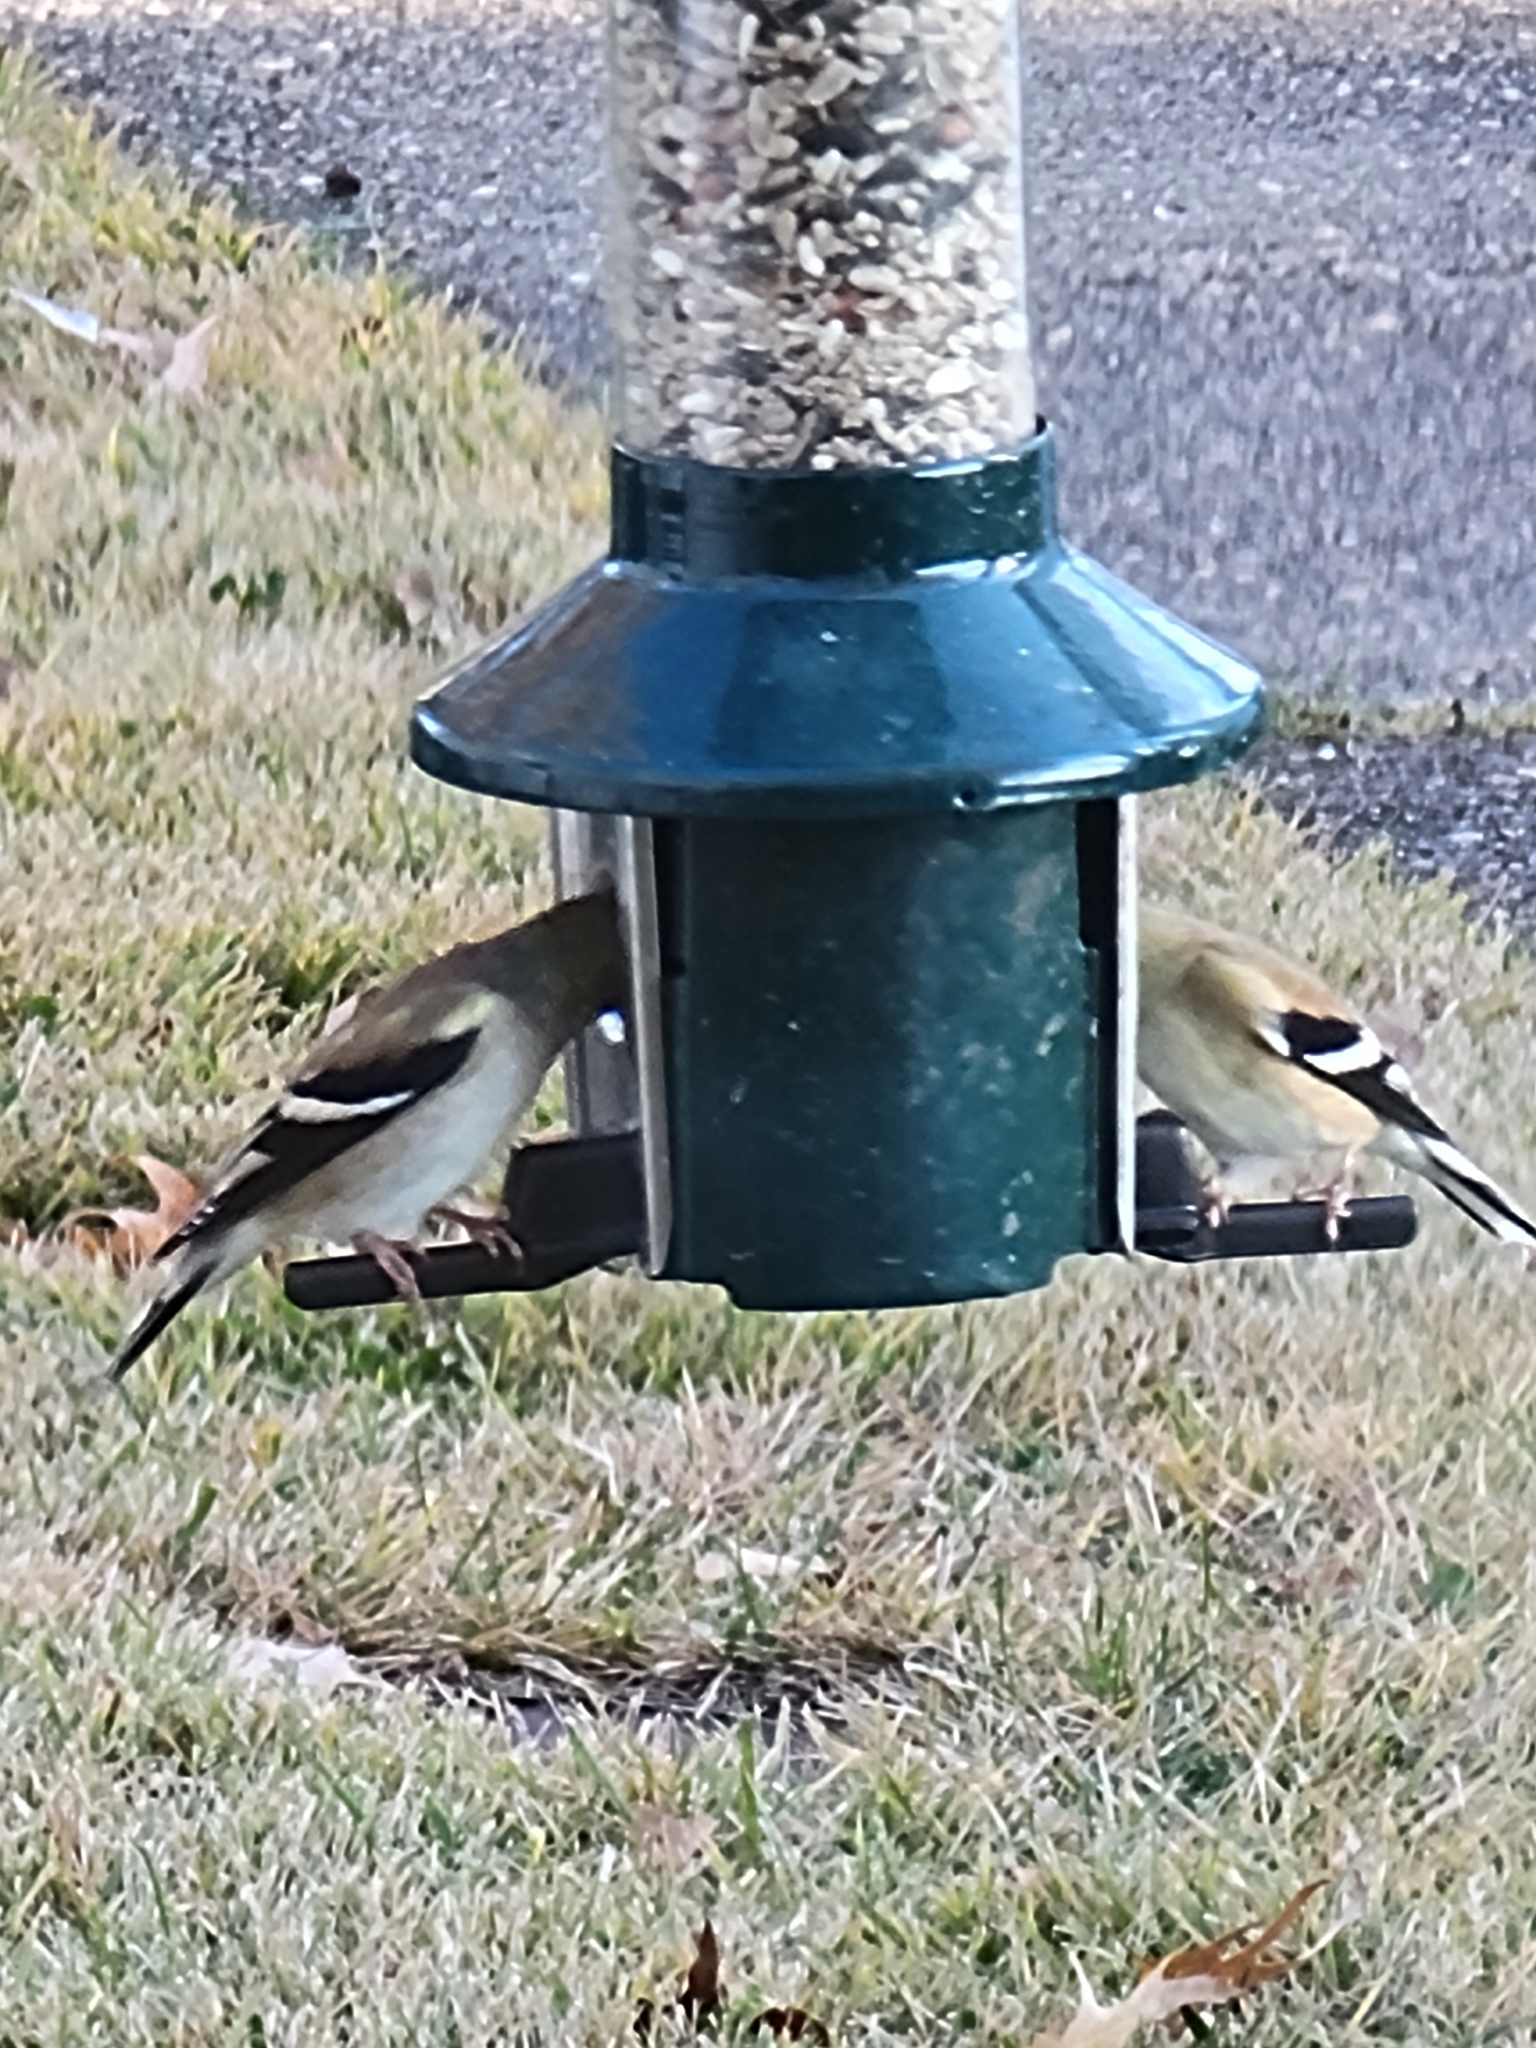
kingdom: Animalia
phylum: Chordata
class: Aves
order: Passeriformes
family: Fringillidae
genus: Spinus
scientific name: Spinus tristis
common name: American goldfinch
